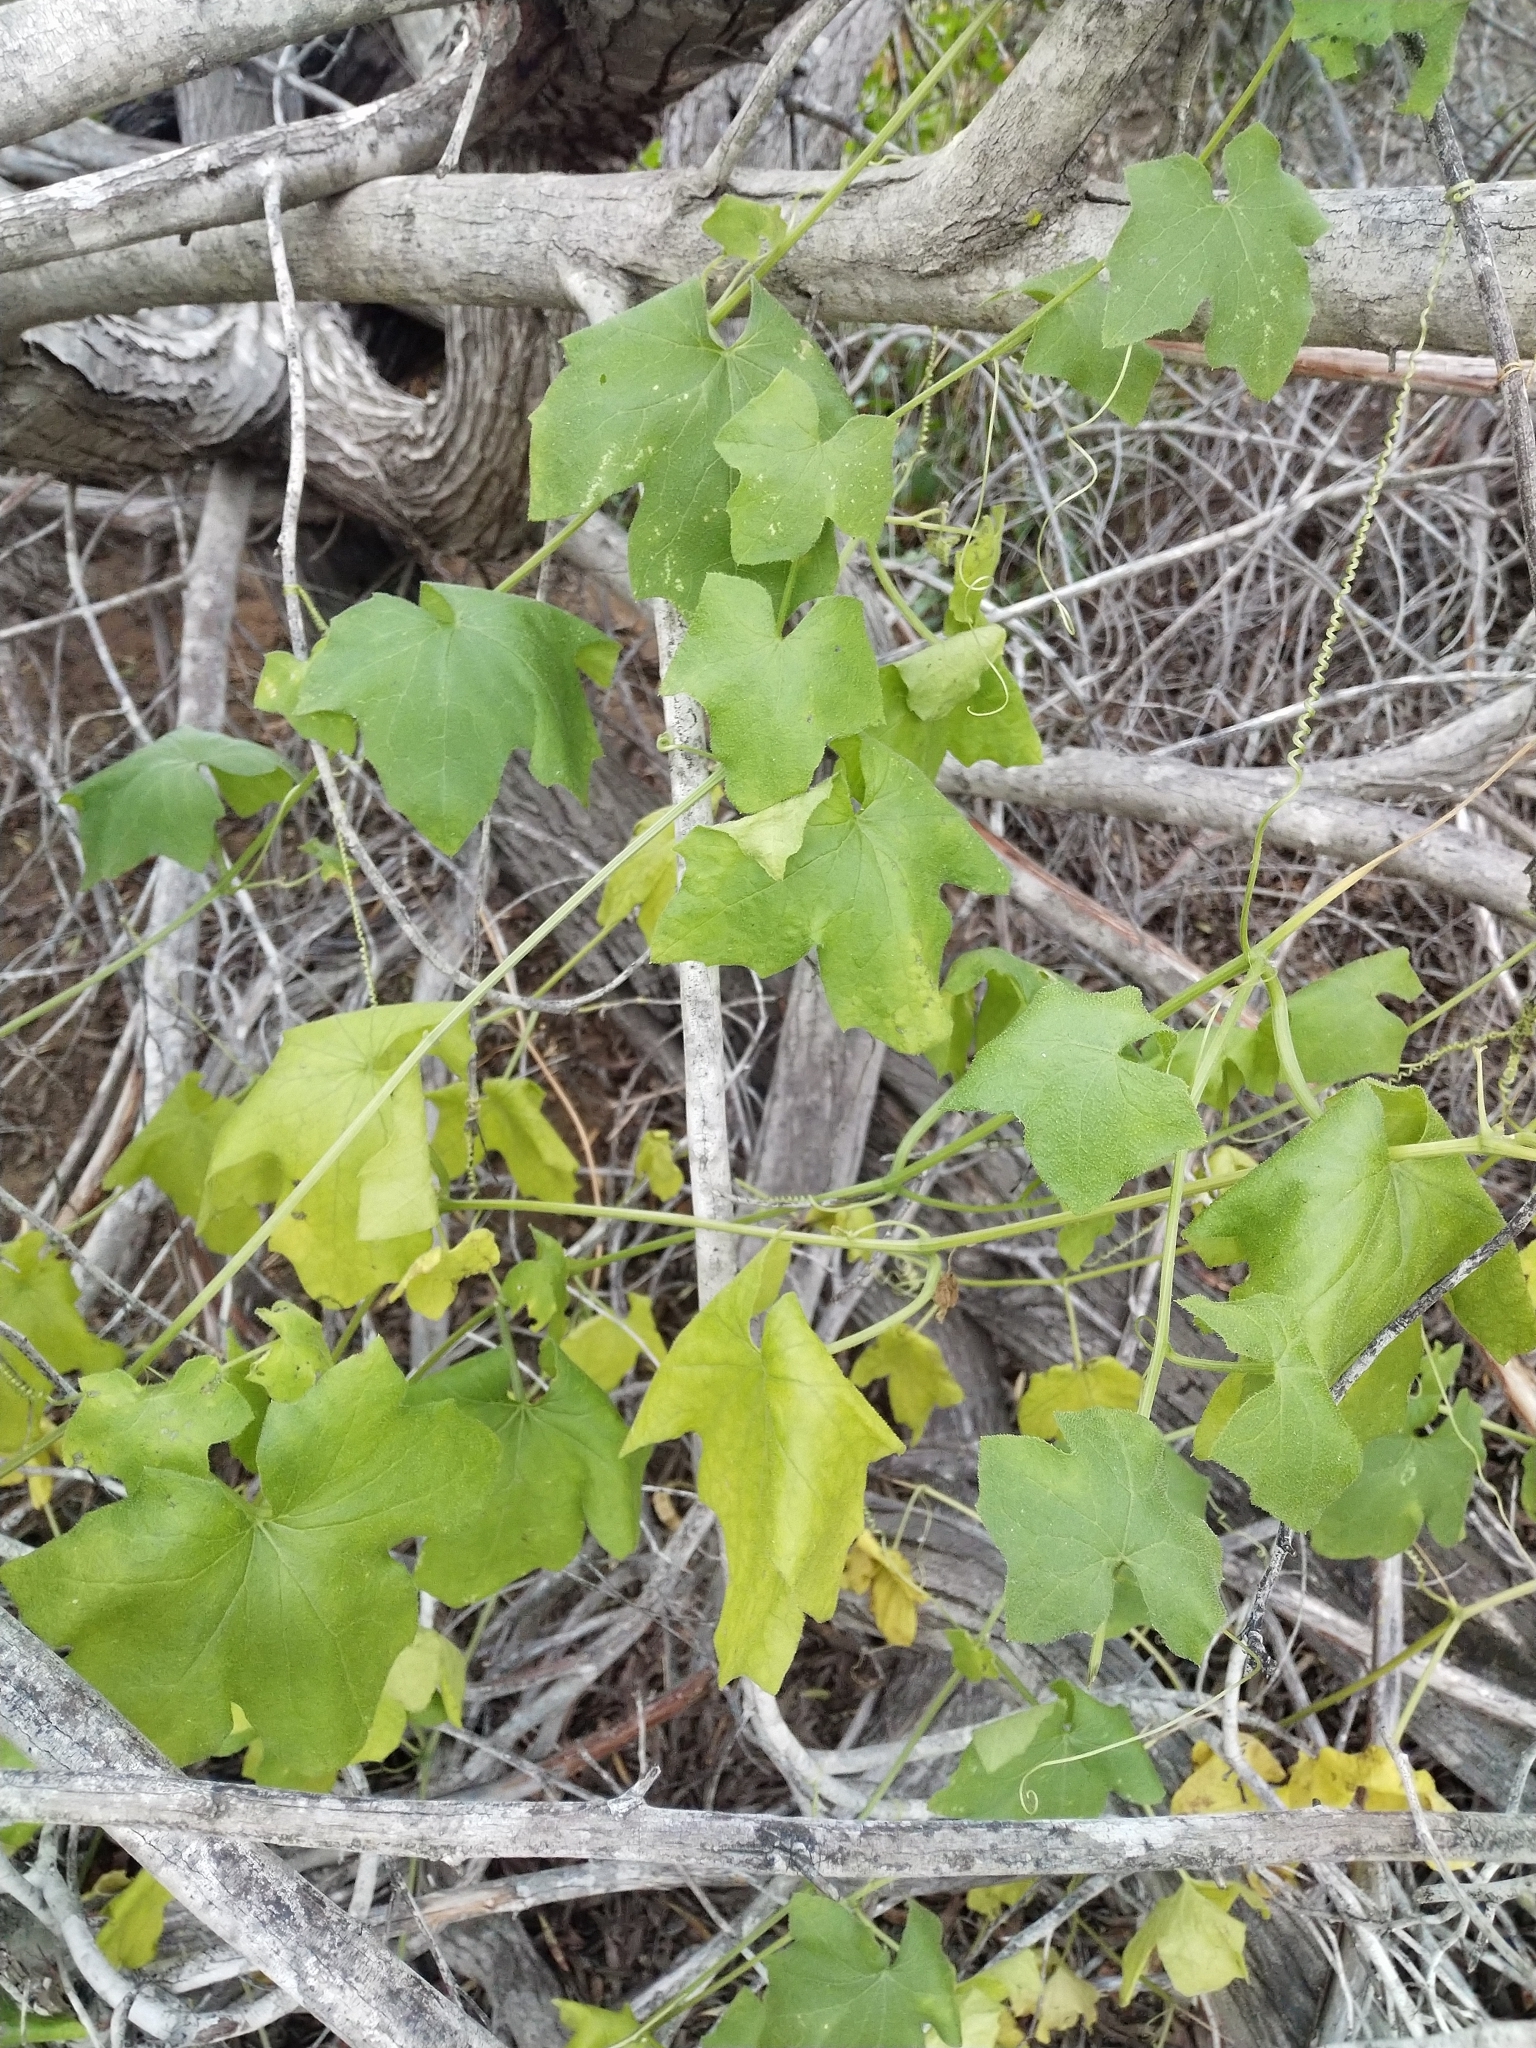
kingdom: Plantae
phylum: Tracheophyta
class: Magnoliopsida
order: Cucurbitales
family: Cucurbitaceae
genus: Marah
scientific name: Marah macrocarpa
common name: Cucamonga manroot
